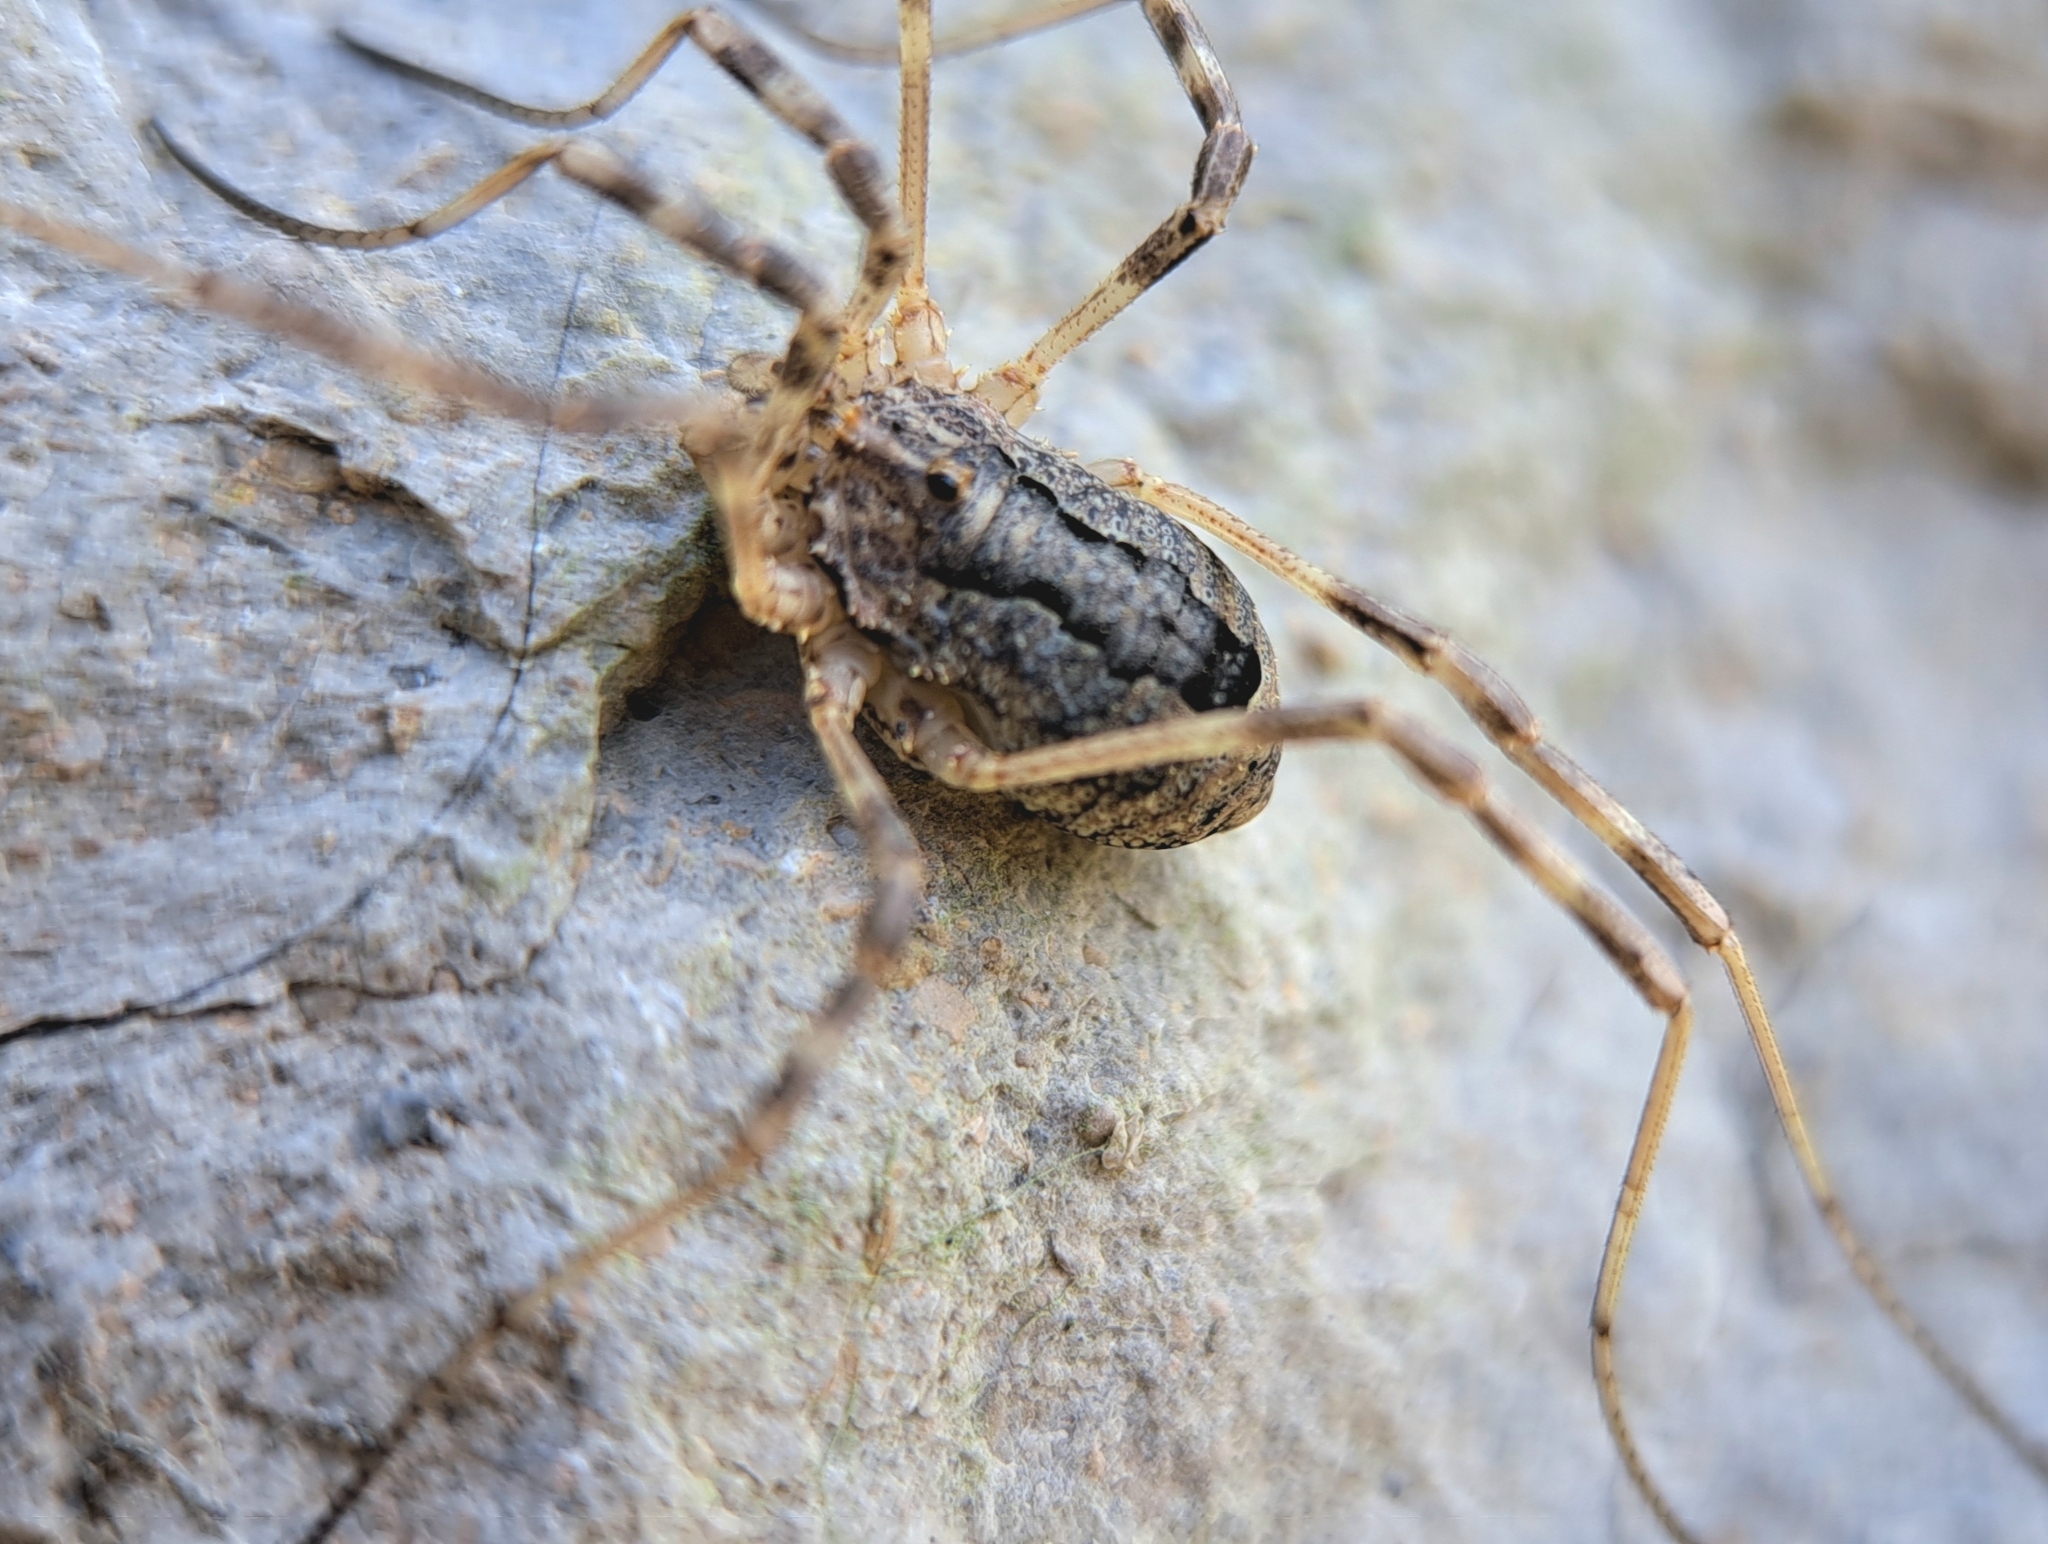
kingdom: Animalia
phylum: Arthropoda
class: Arachnida
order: Opiliones
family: Phalangiidae
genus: Odiellus
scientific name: Odiellus spinosus
